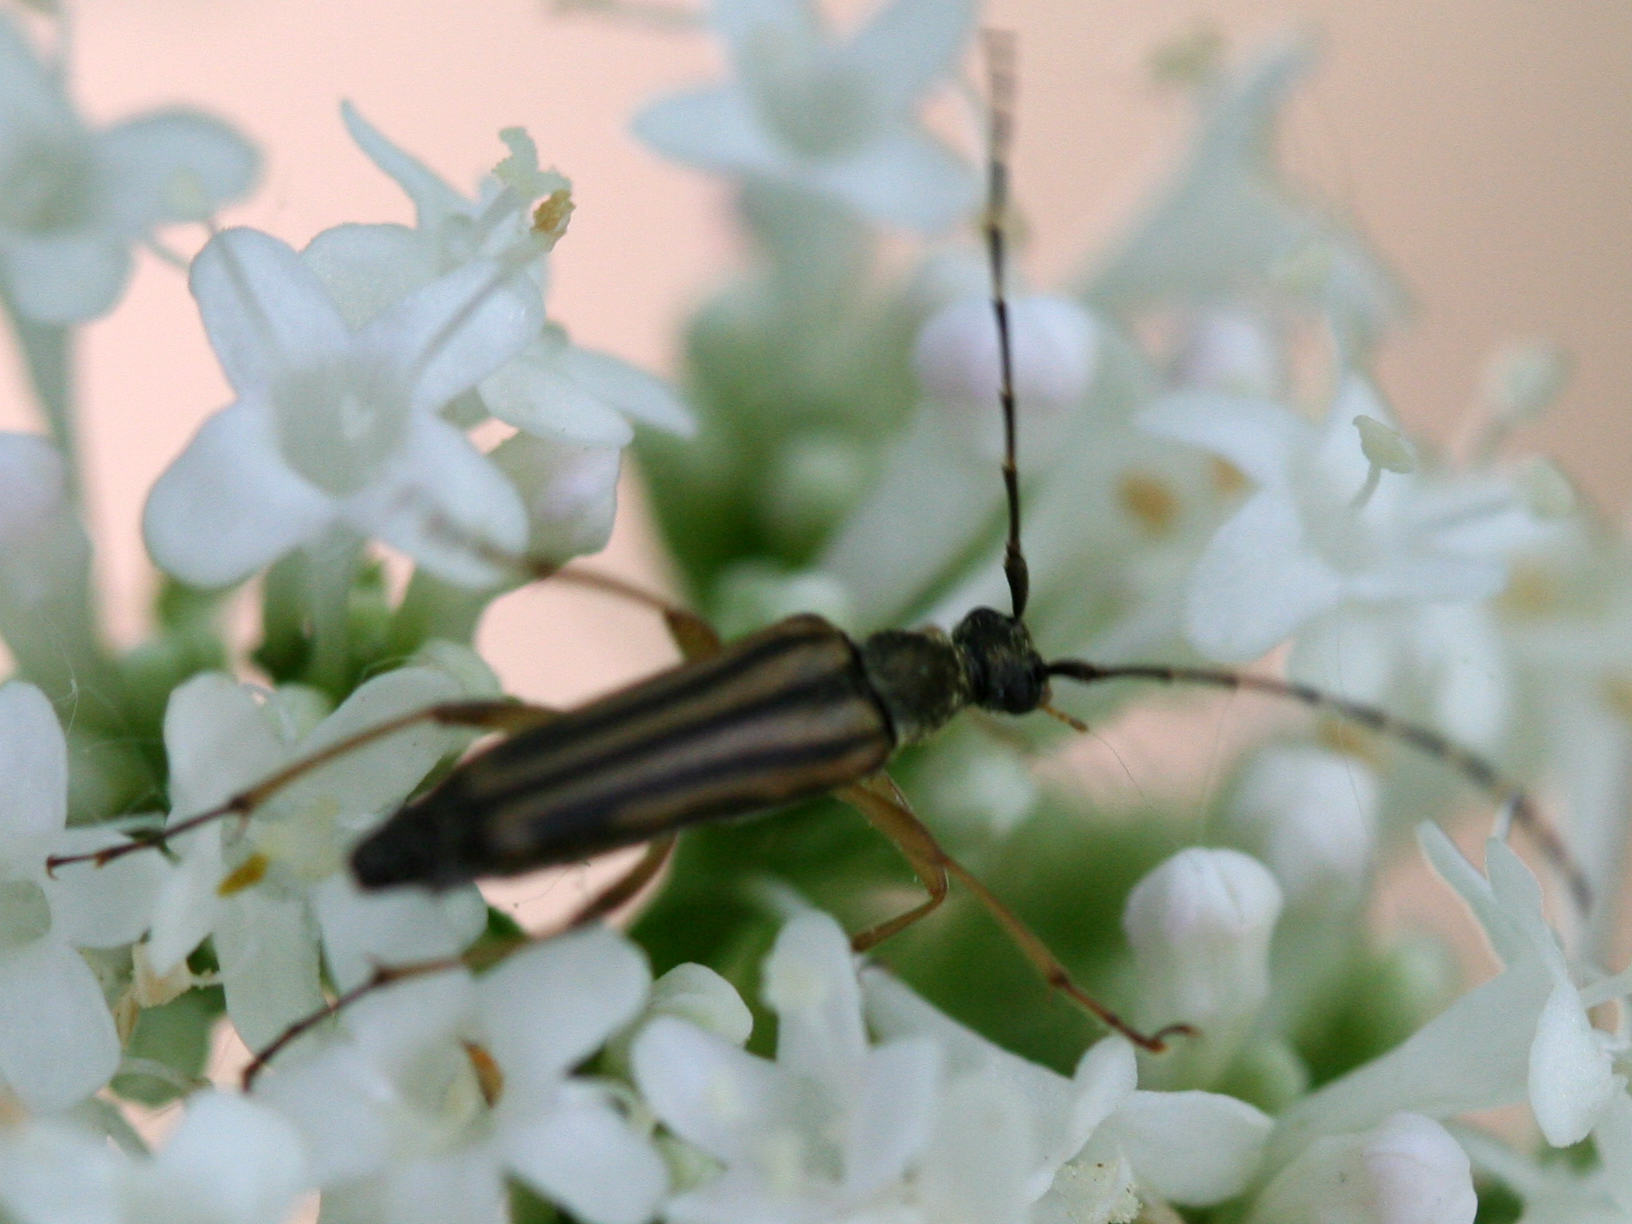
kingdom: Animalia
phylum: Arthropoda
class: Insecta
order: Coleoptera
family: Cerambycidae
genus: Analeptura
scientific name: Analeptura lineola
